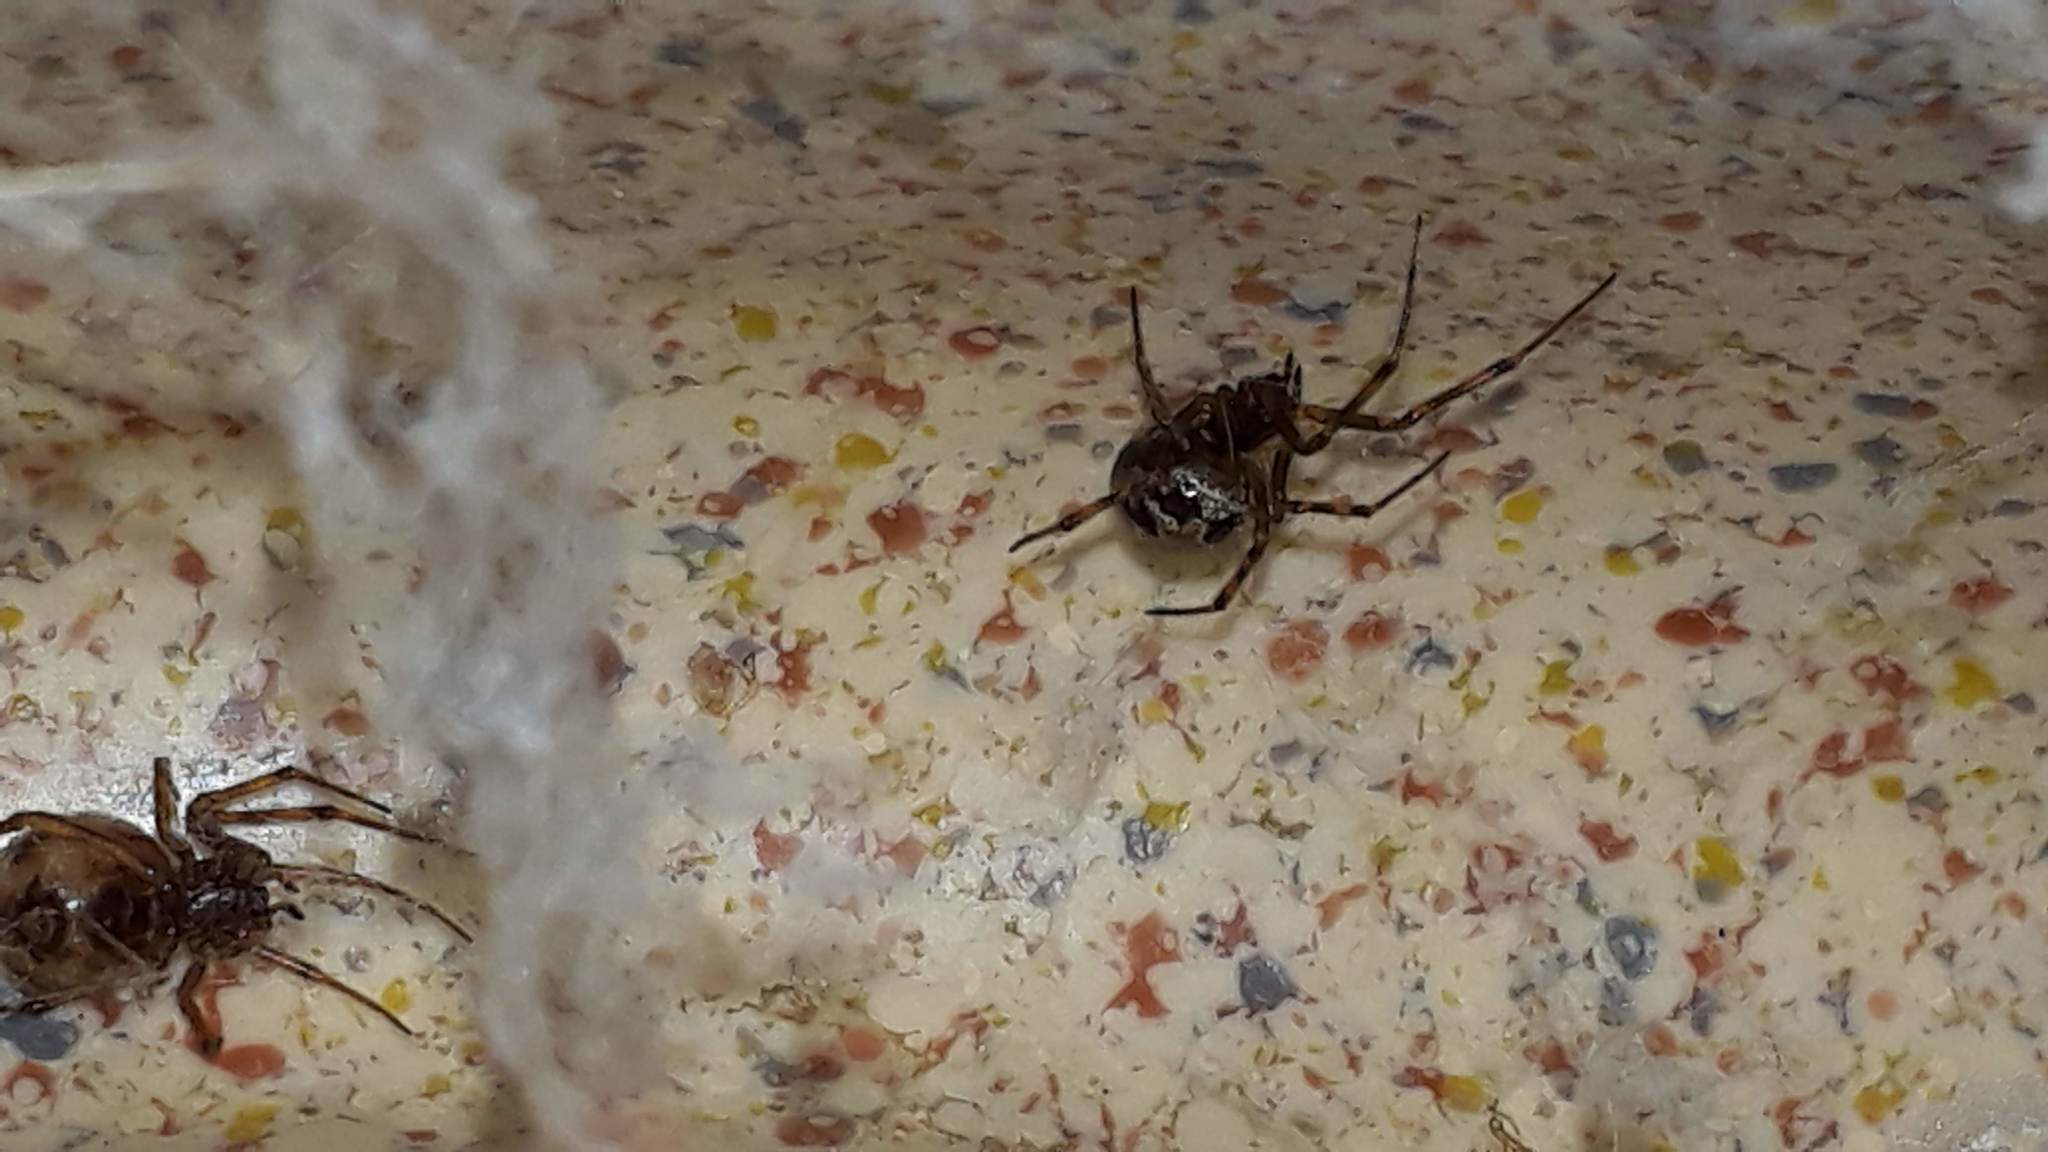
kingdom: Animalia
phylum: Arthropoda
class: Arachnida
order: Araneae
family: Theridiidae
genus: Steatoda
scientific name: Steatoda triangulosa
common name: Triangulate bud spider
